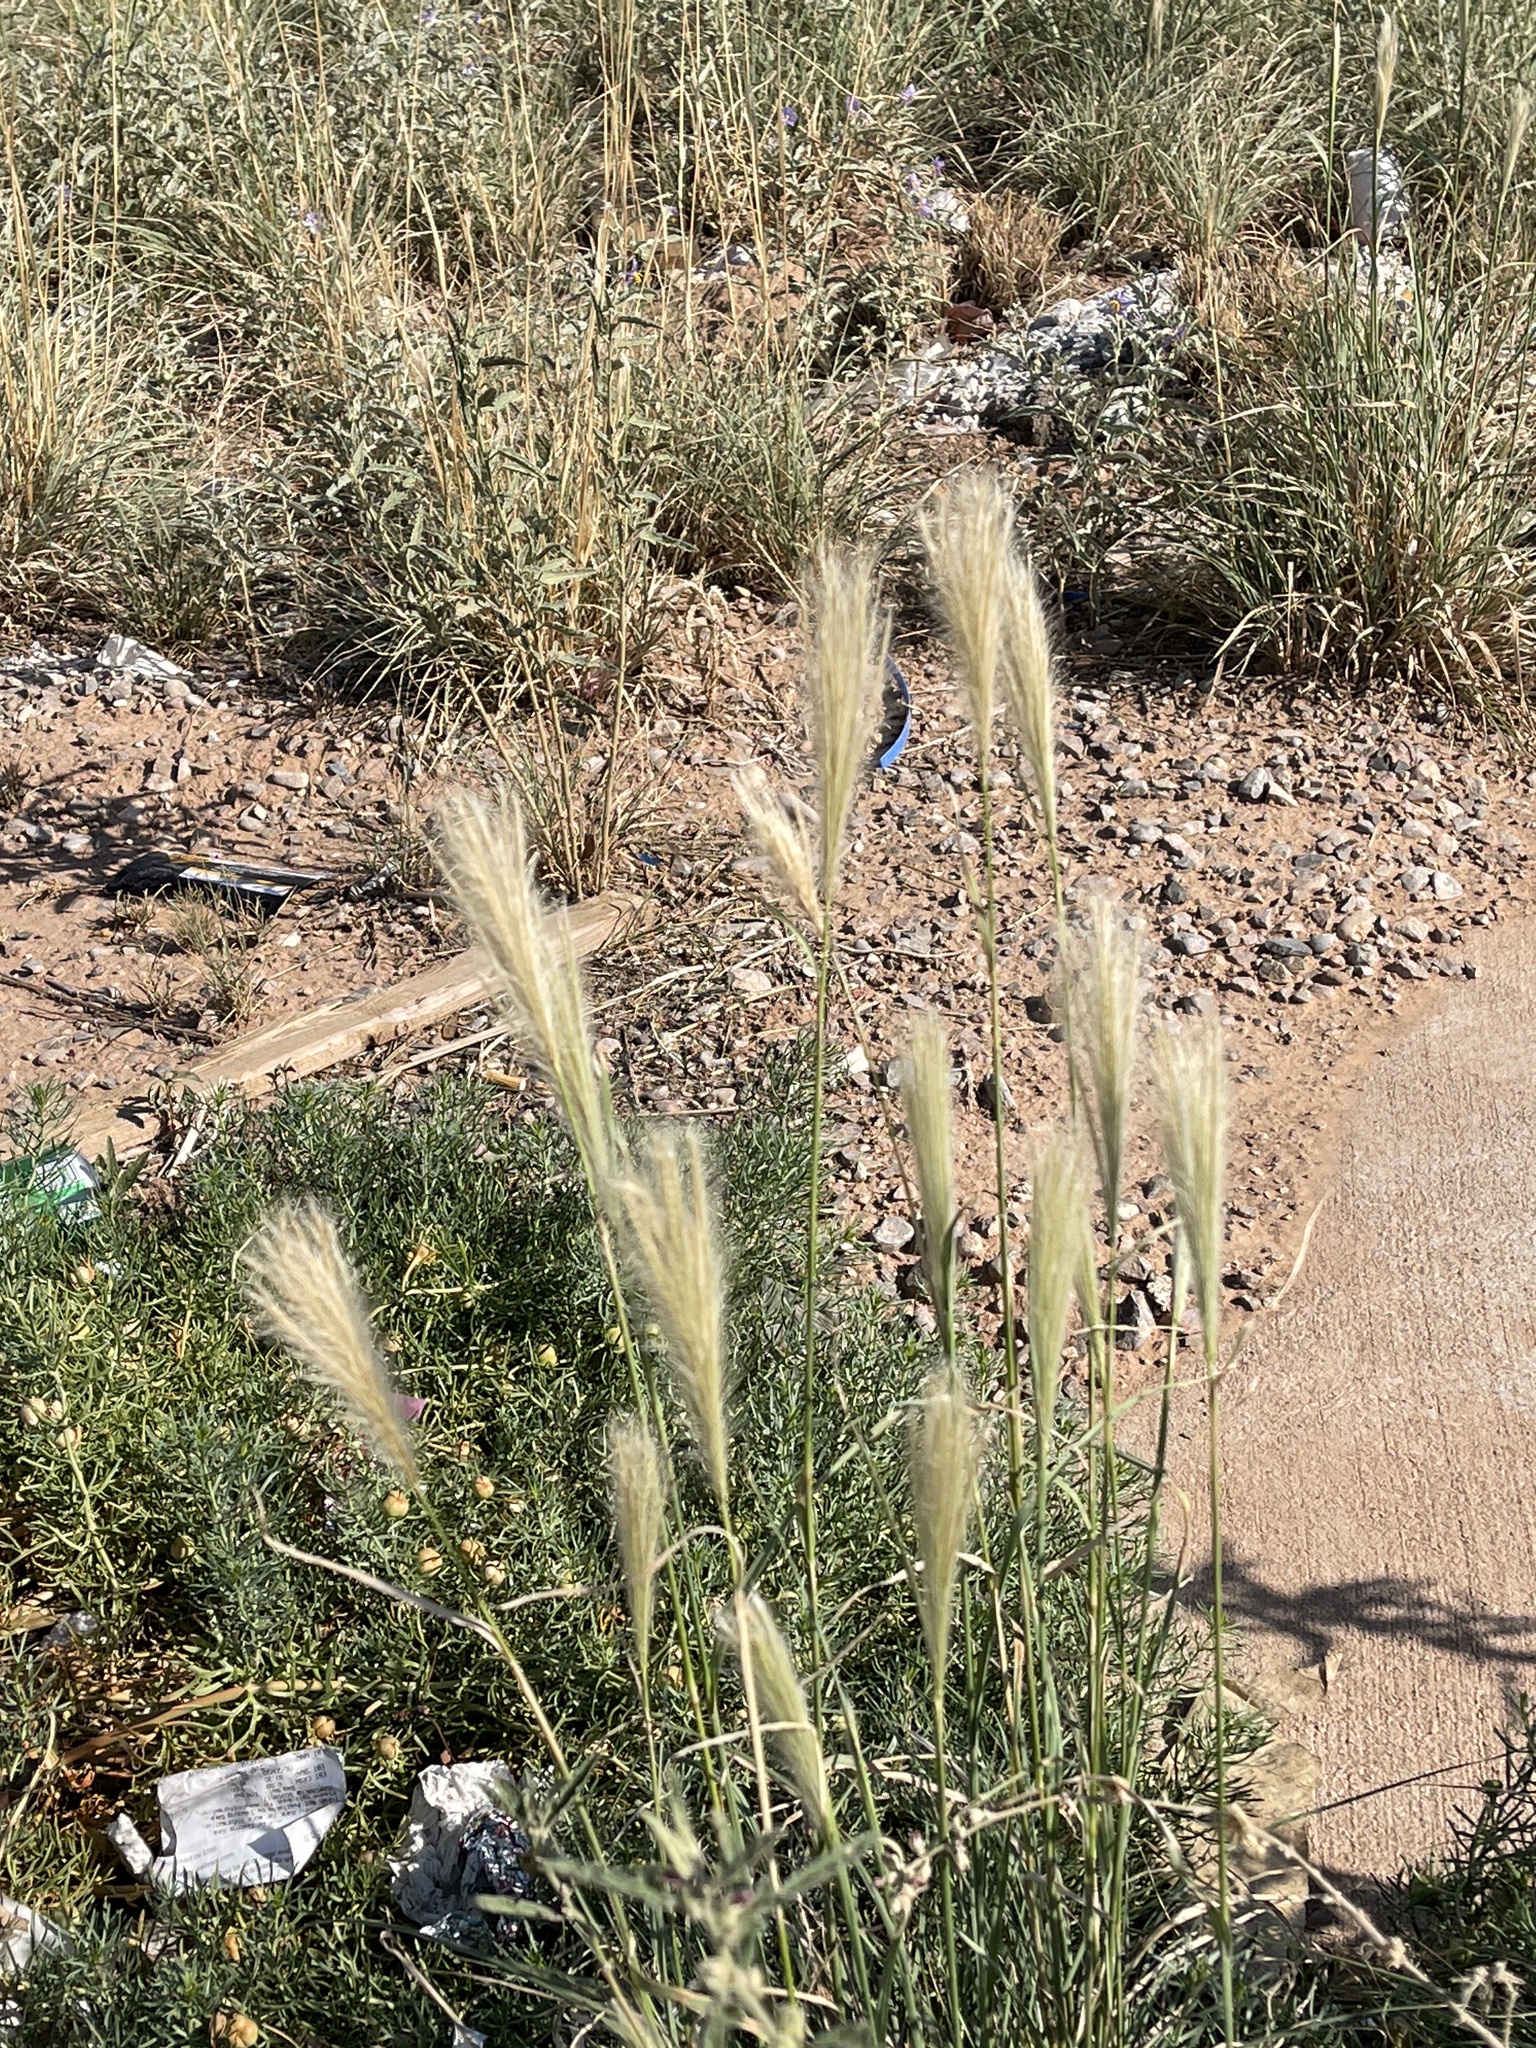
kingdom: Plantae
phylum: Tracheophyta
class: Liliopsida
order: Poales
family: Poaceae
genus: Chloris
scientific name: Chloris virgata
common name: Feathery rhodes-grass
